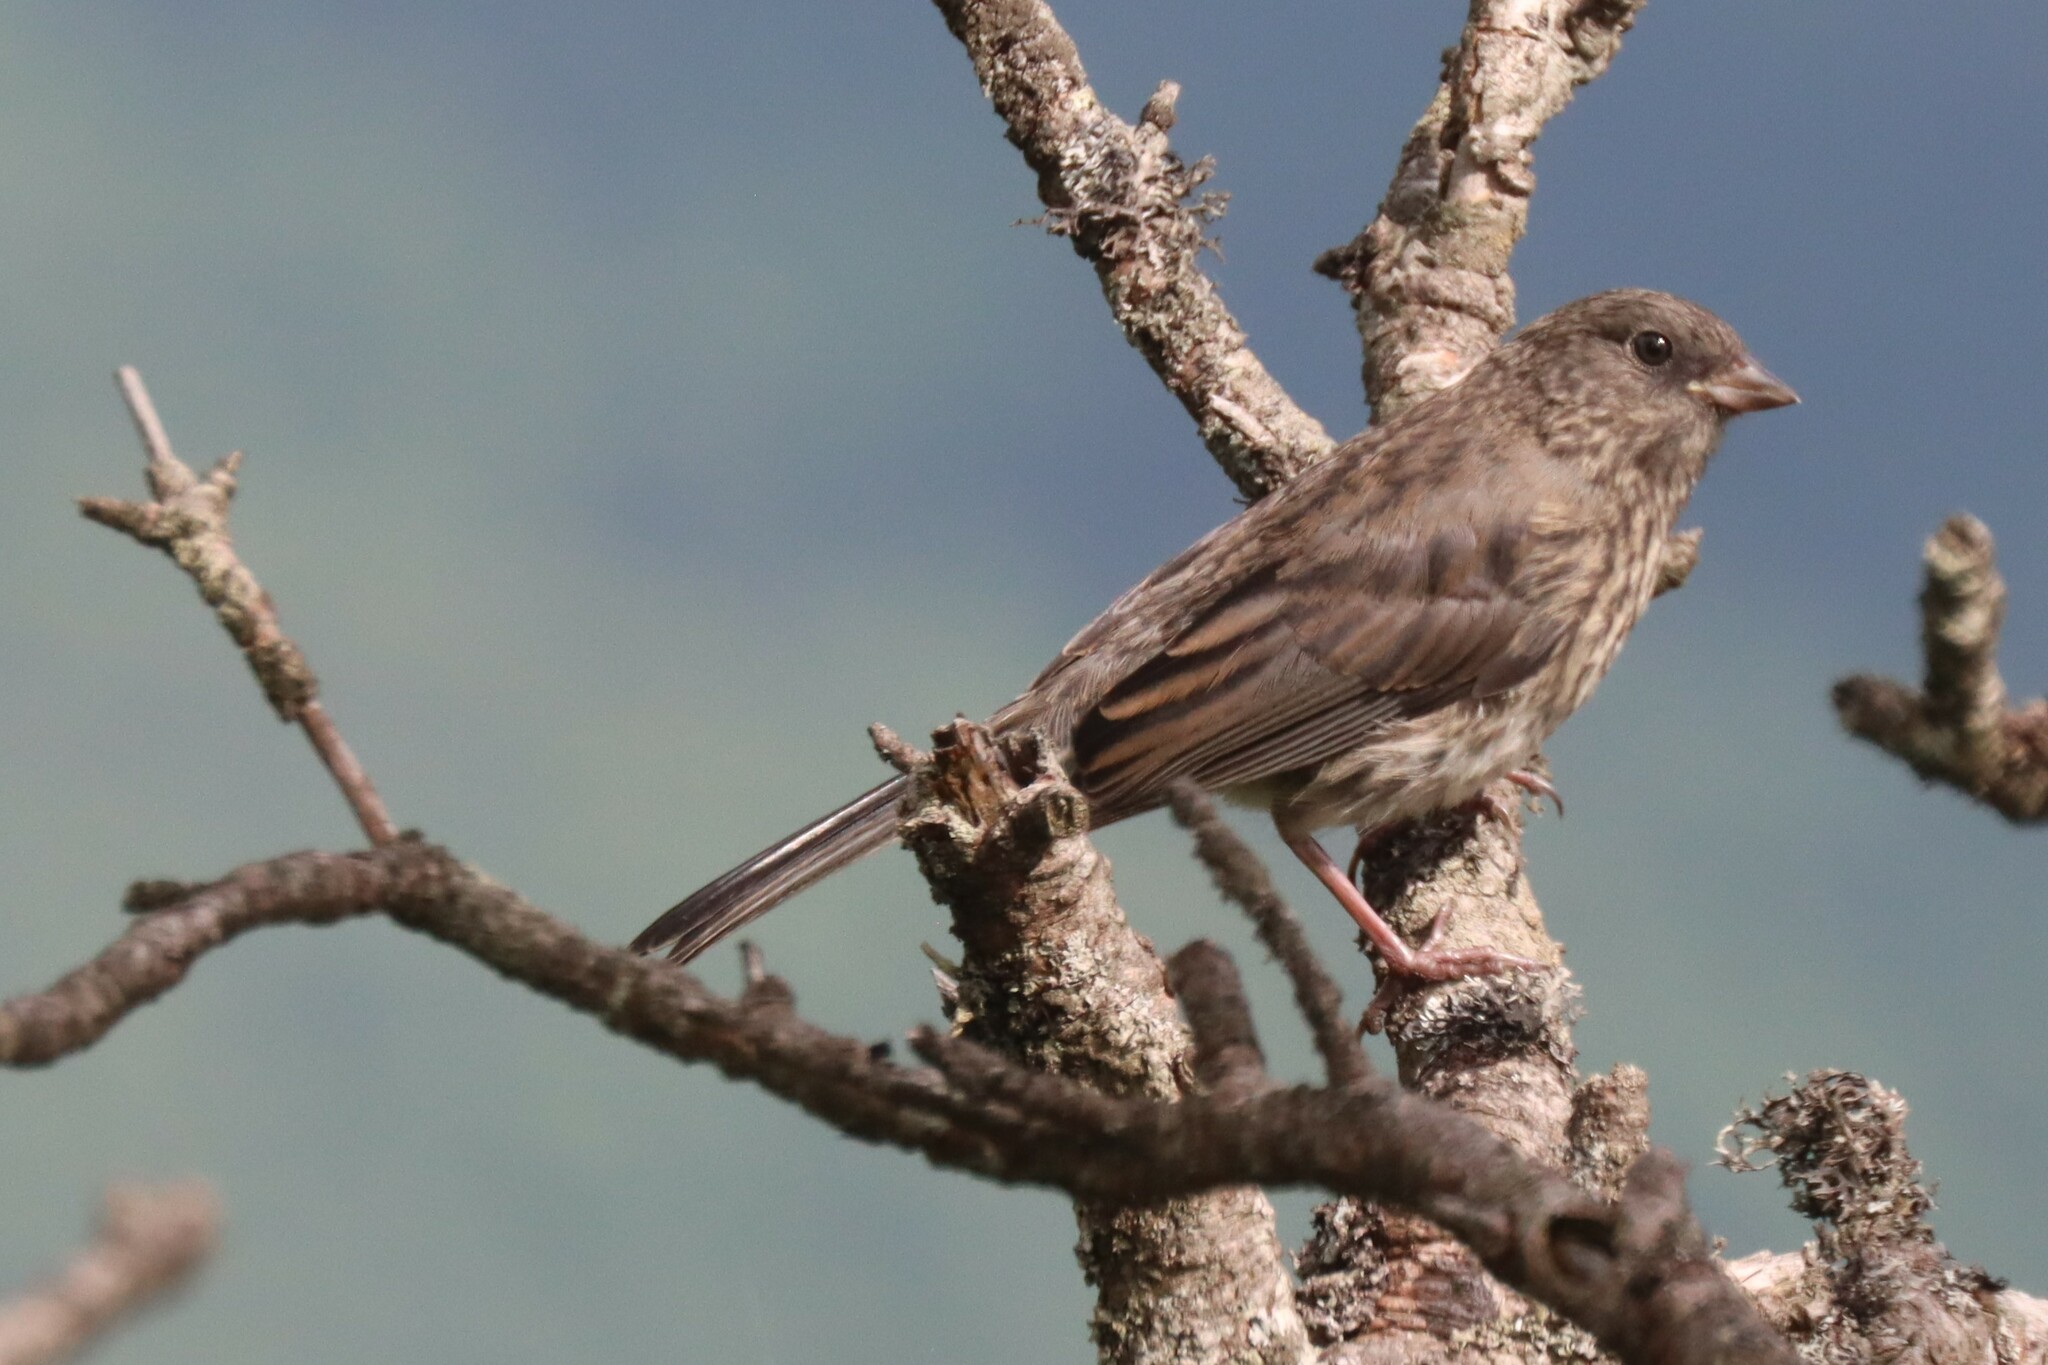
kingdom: Animalia
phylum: Chordata
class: Aves
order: Passeriformes
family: Passerellidae
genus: Junco
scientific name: Junco hyemalis
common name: Dark-eyed junco
